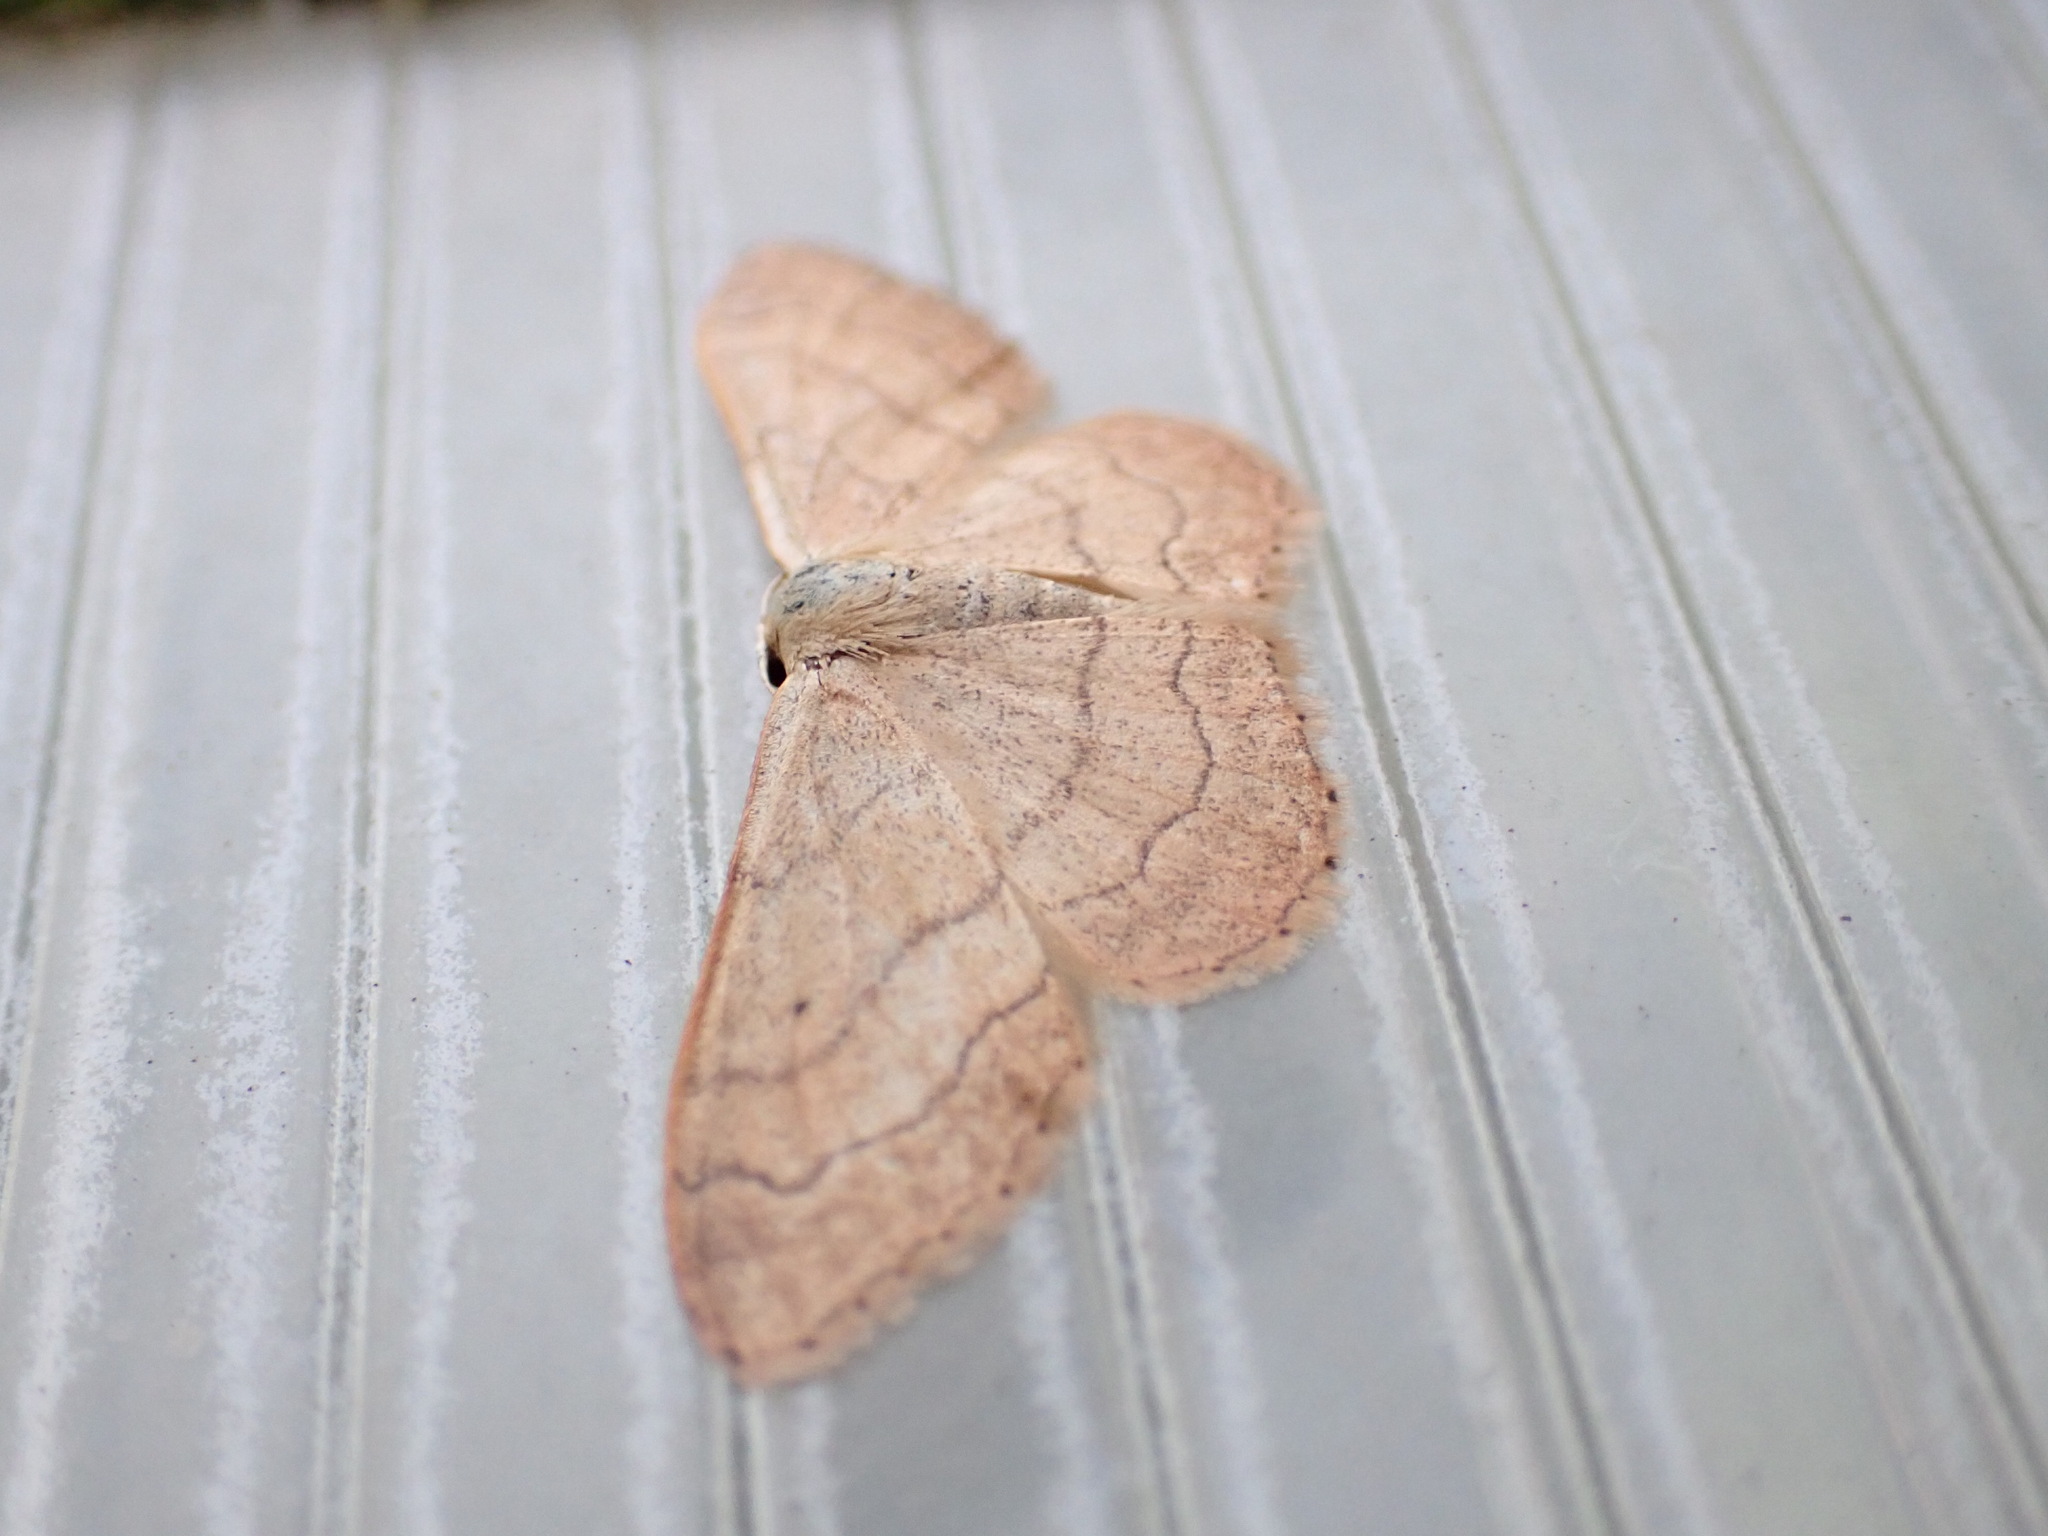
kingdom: Animalia
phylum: Arthropoda
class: Insecta
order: Lepidoptera
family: Geometridae
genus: Idaea
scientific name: Idaea aversata
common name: Riband wave
